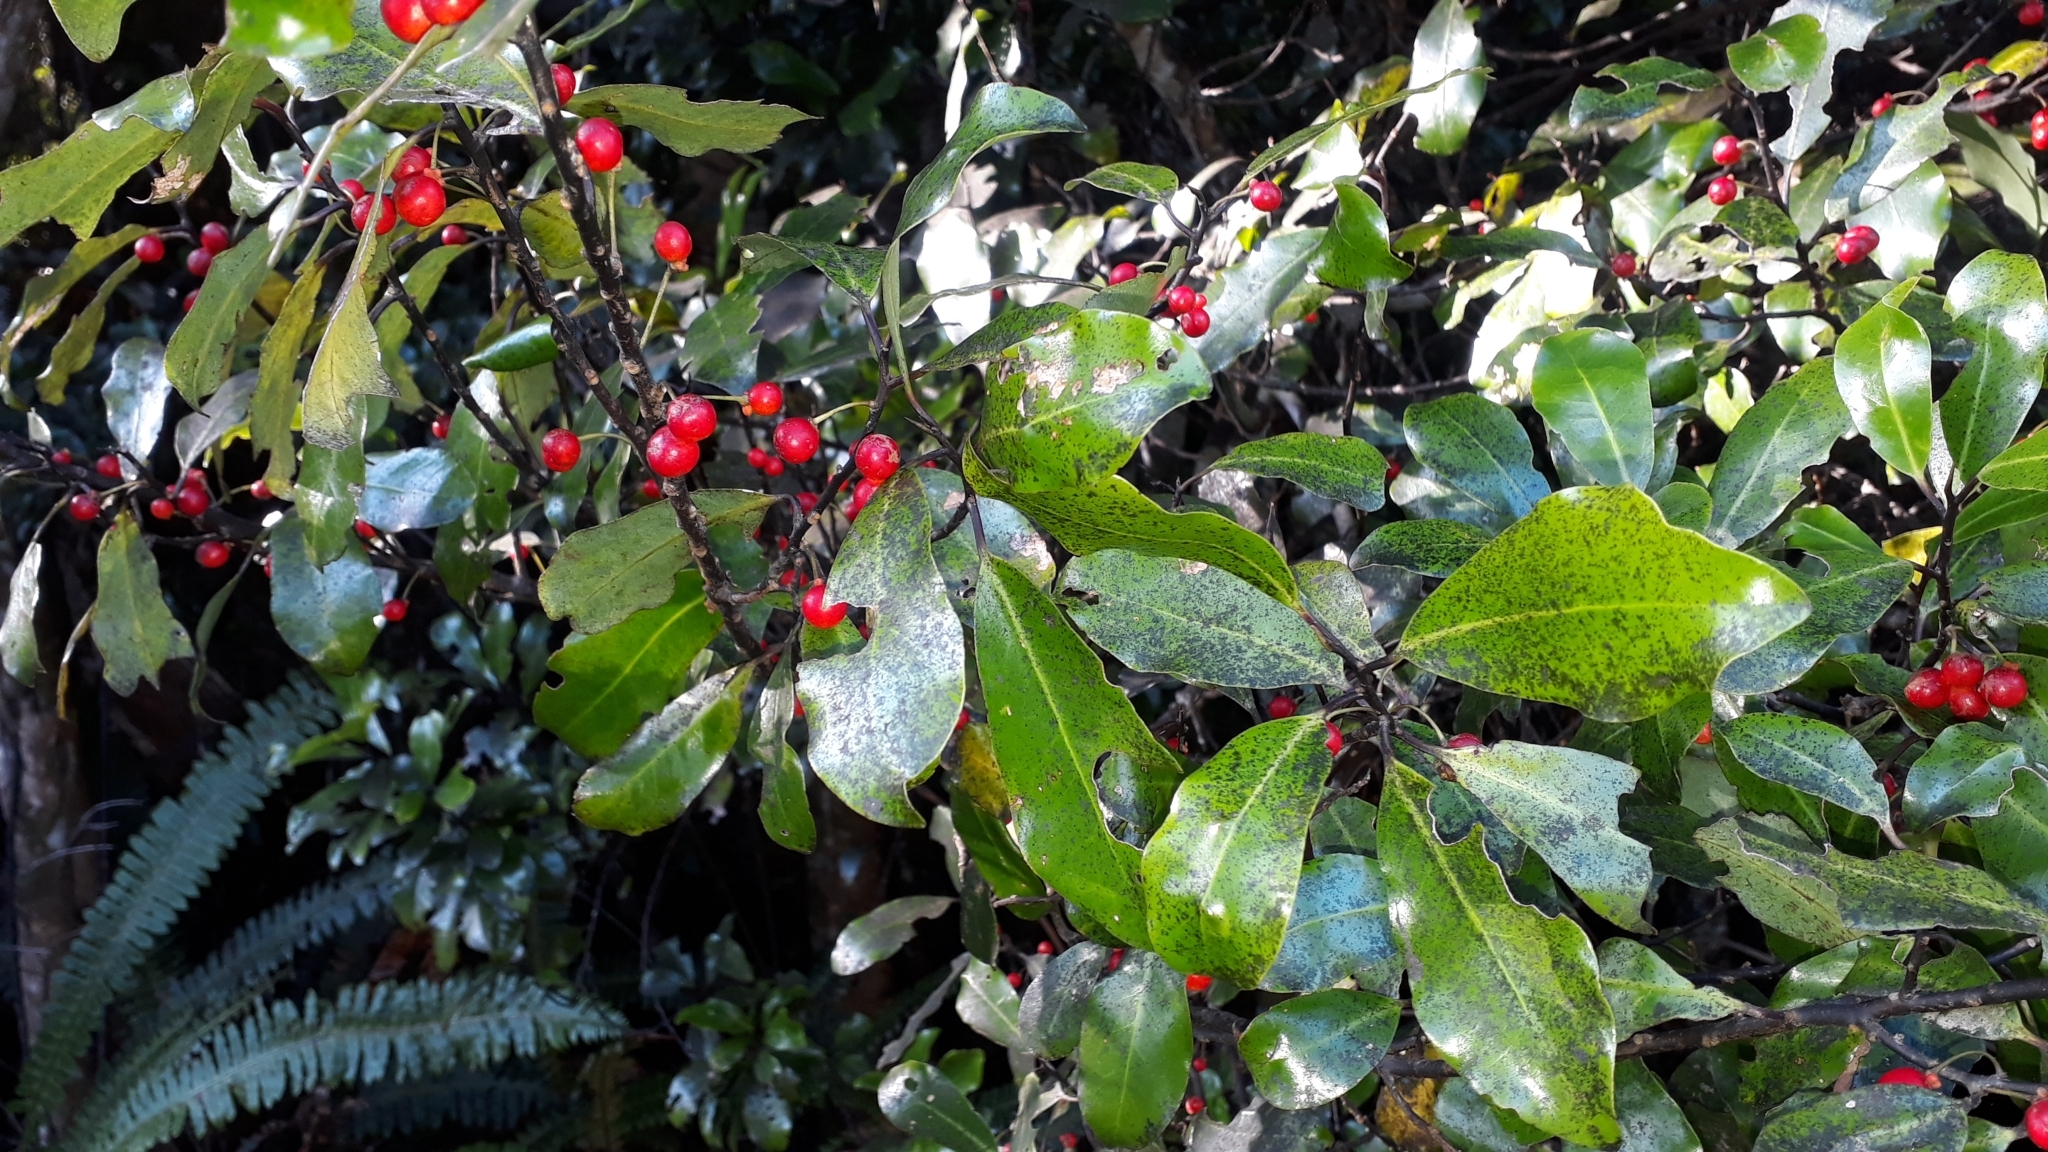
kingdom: Plantae
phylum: Tracheophyta
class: Magnoliopsida
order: Canellales
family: Winteraceae
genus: Pseudowintera
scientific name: Pseudowintera axillaris
